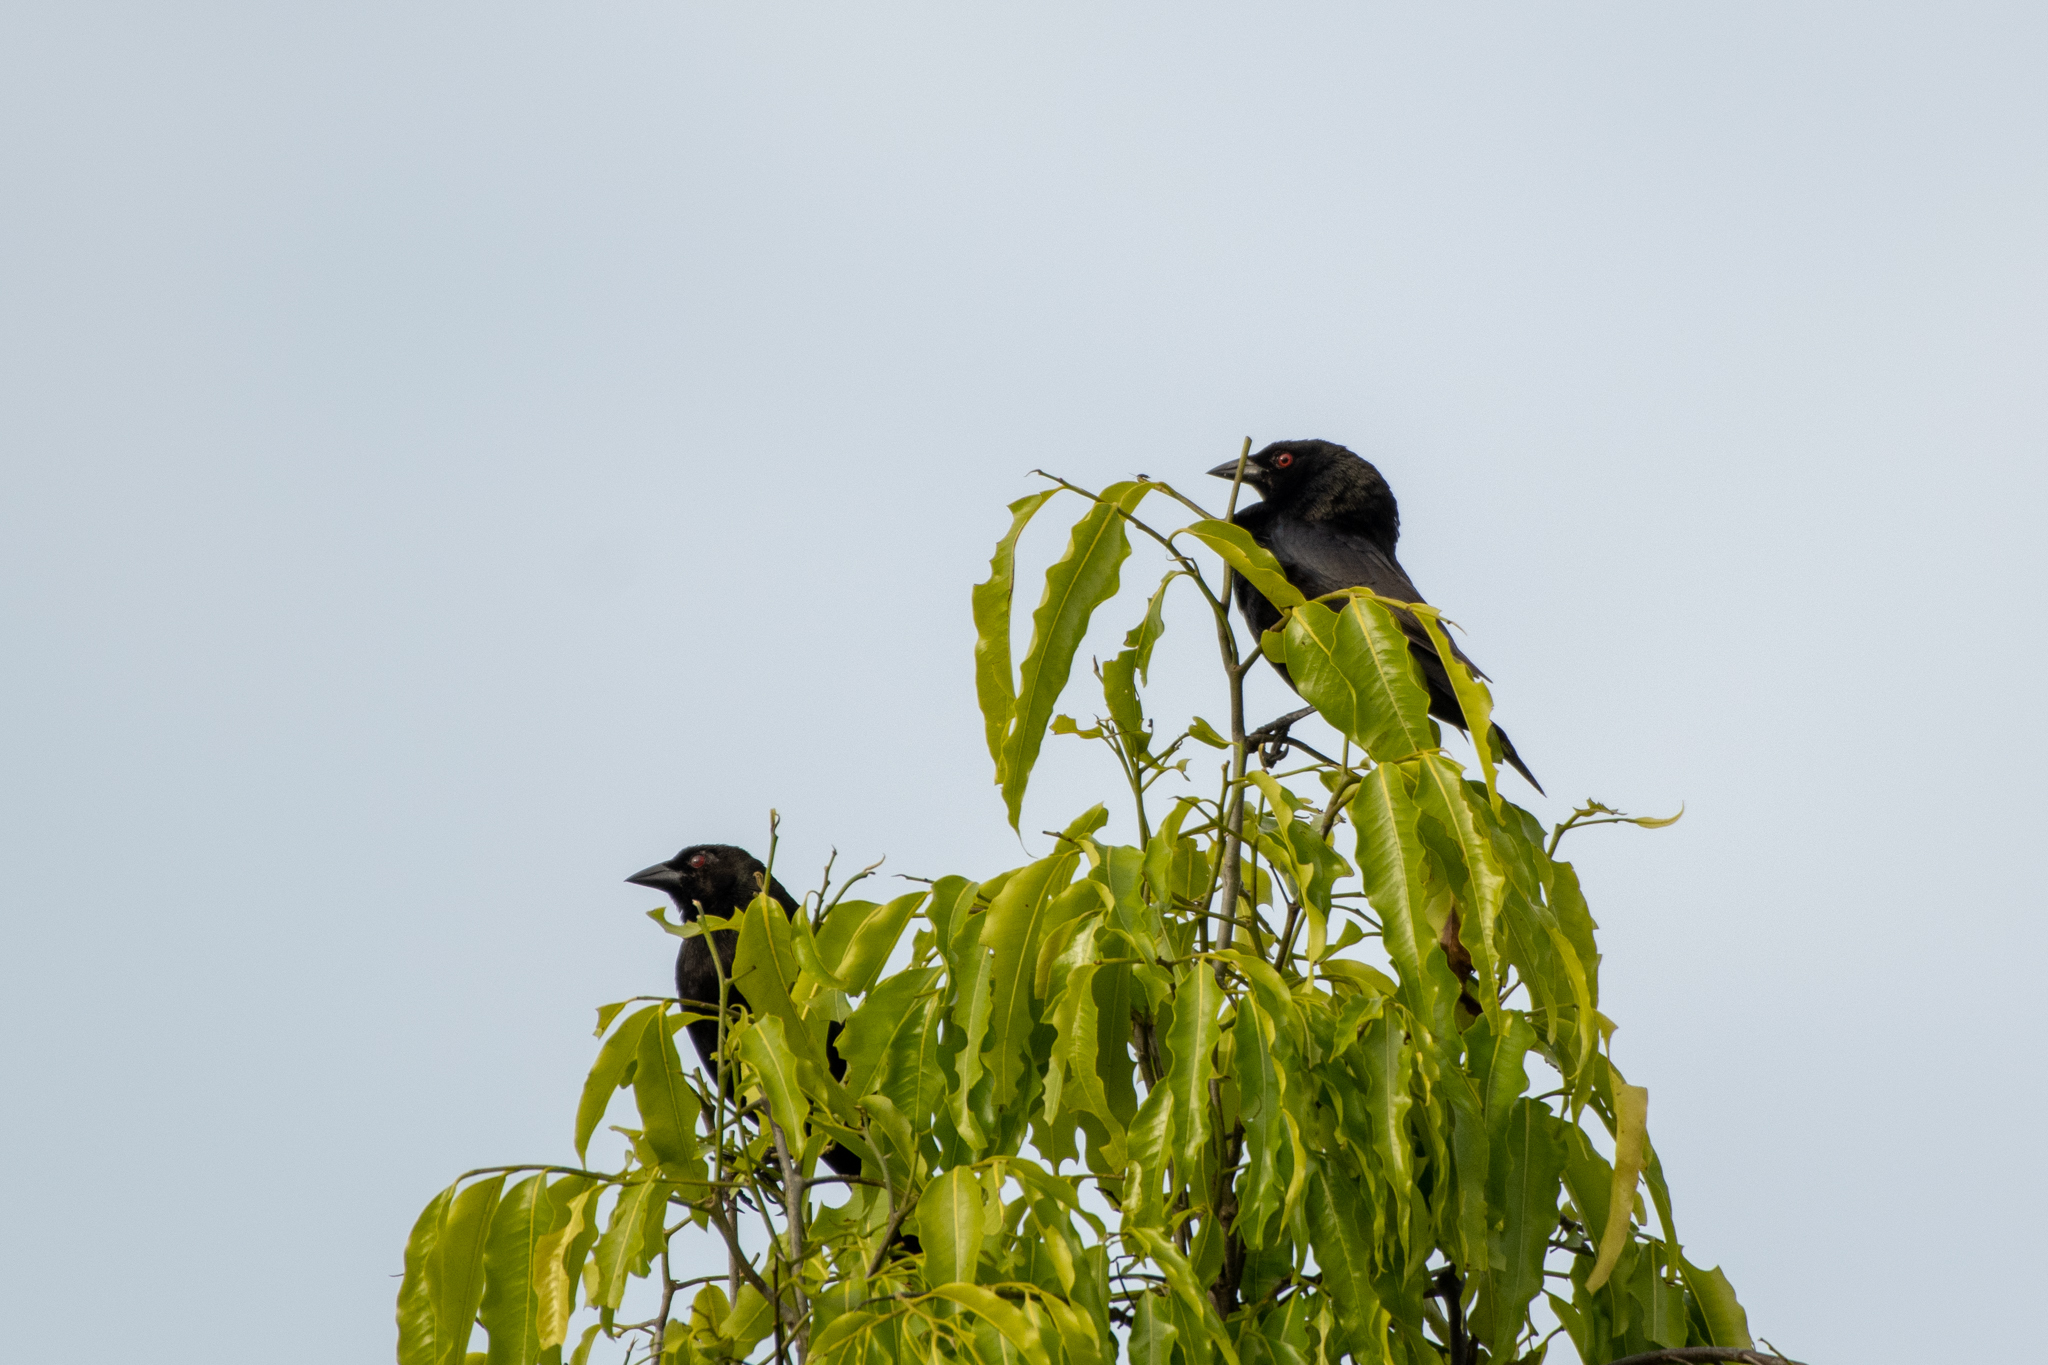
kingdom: Animalia
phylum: Chordata
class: Aves
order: Passeriformes
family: Icteridae
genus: Molothrus
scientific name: Molothrus aeneus
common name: Bronzed cowbird
